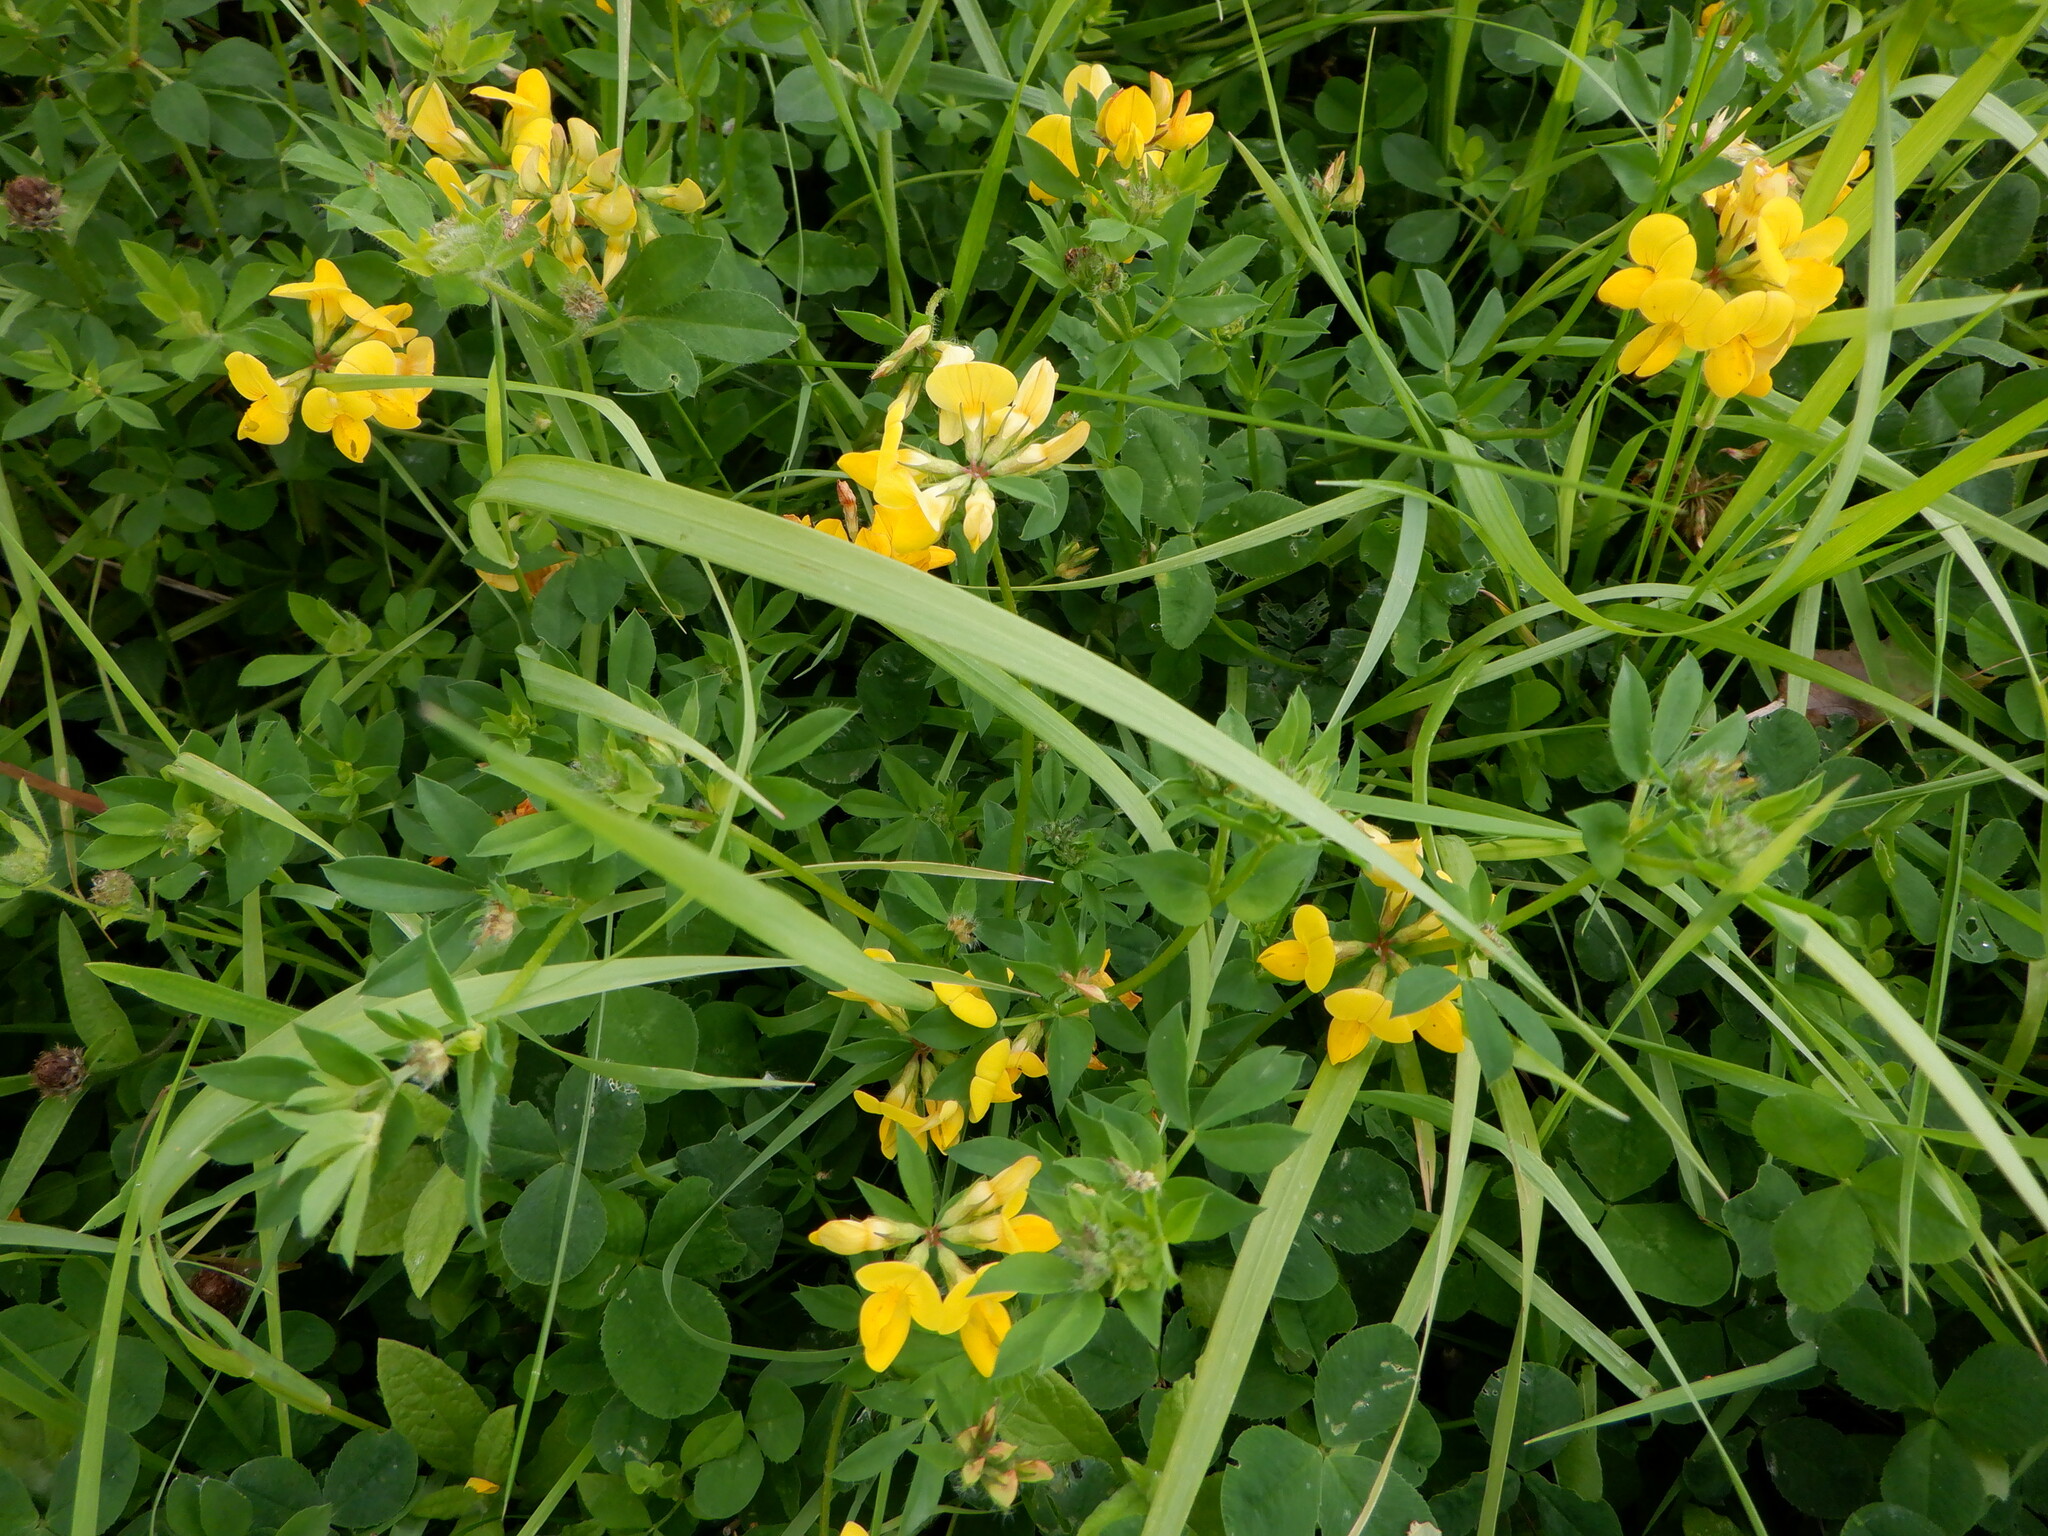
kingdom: Plantae
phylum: Tracheophyta
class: Magnoliopsida
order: Fabales
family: Fabaceae
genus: Lotus
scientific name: Lotus corniculatus
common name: Common bird's-foot-trefoil
